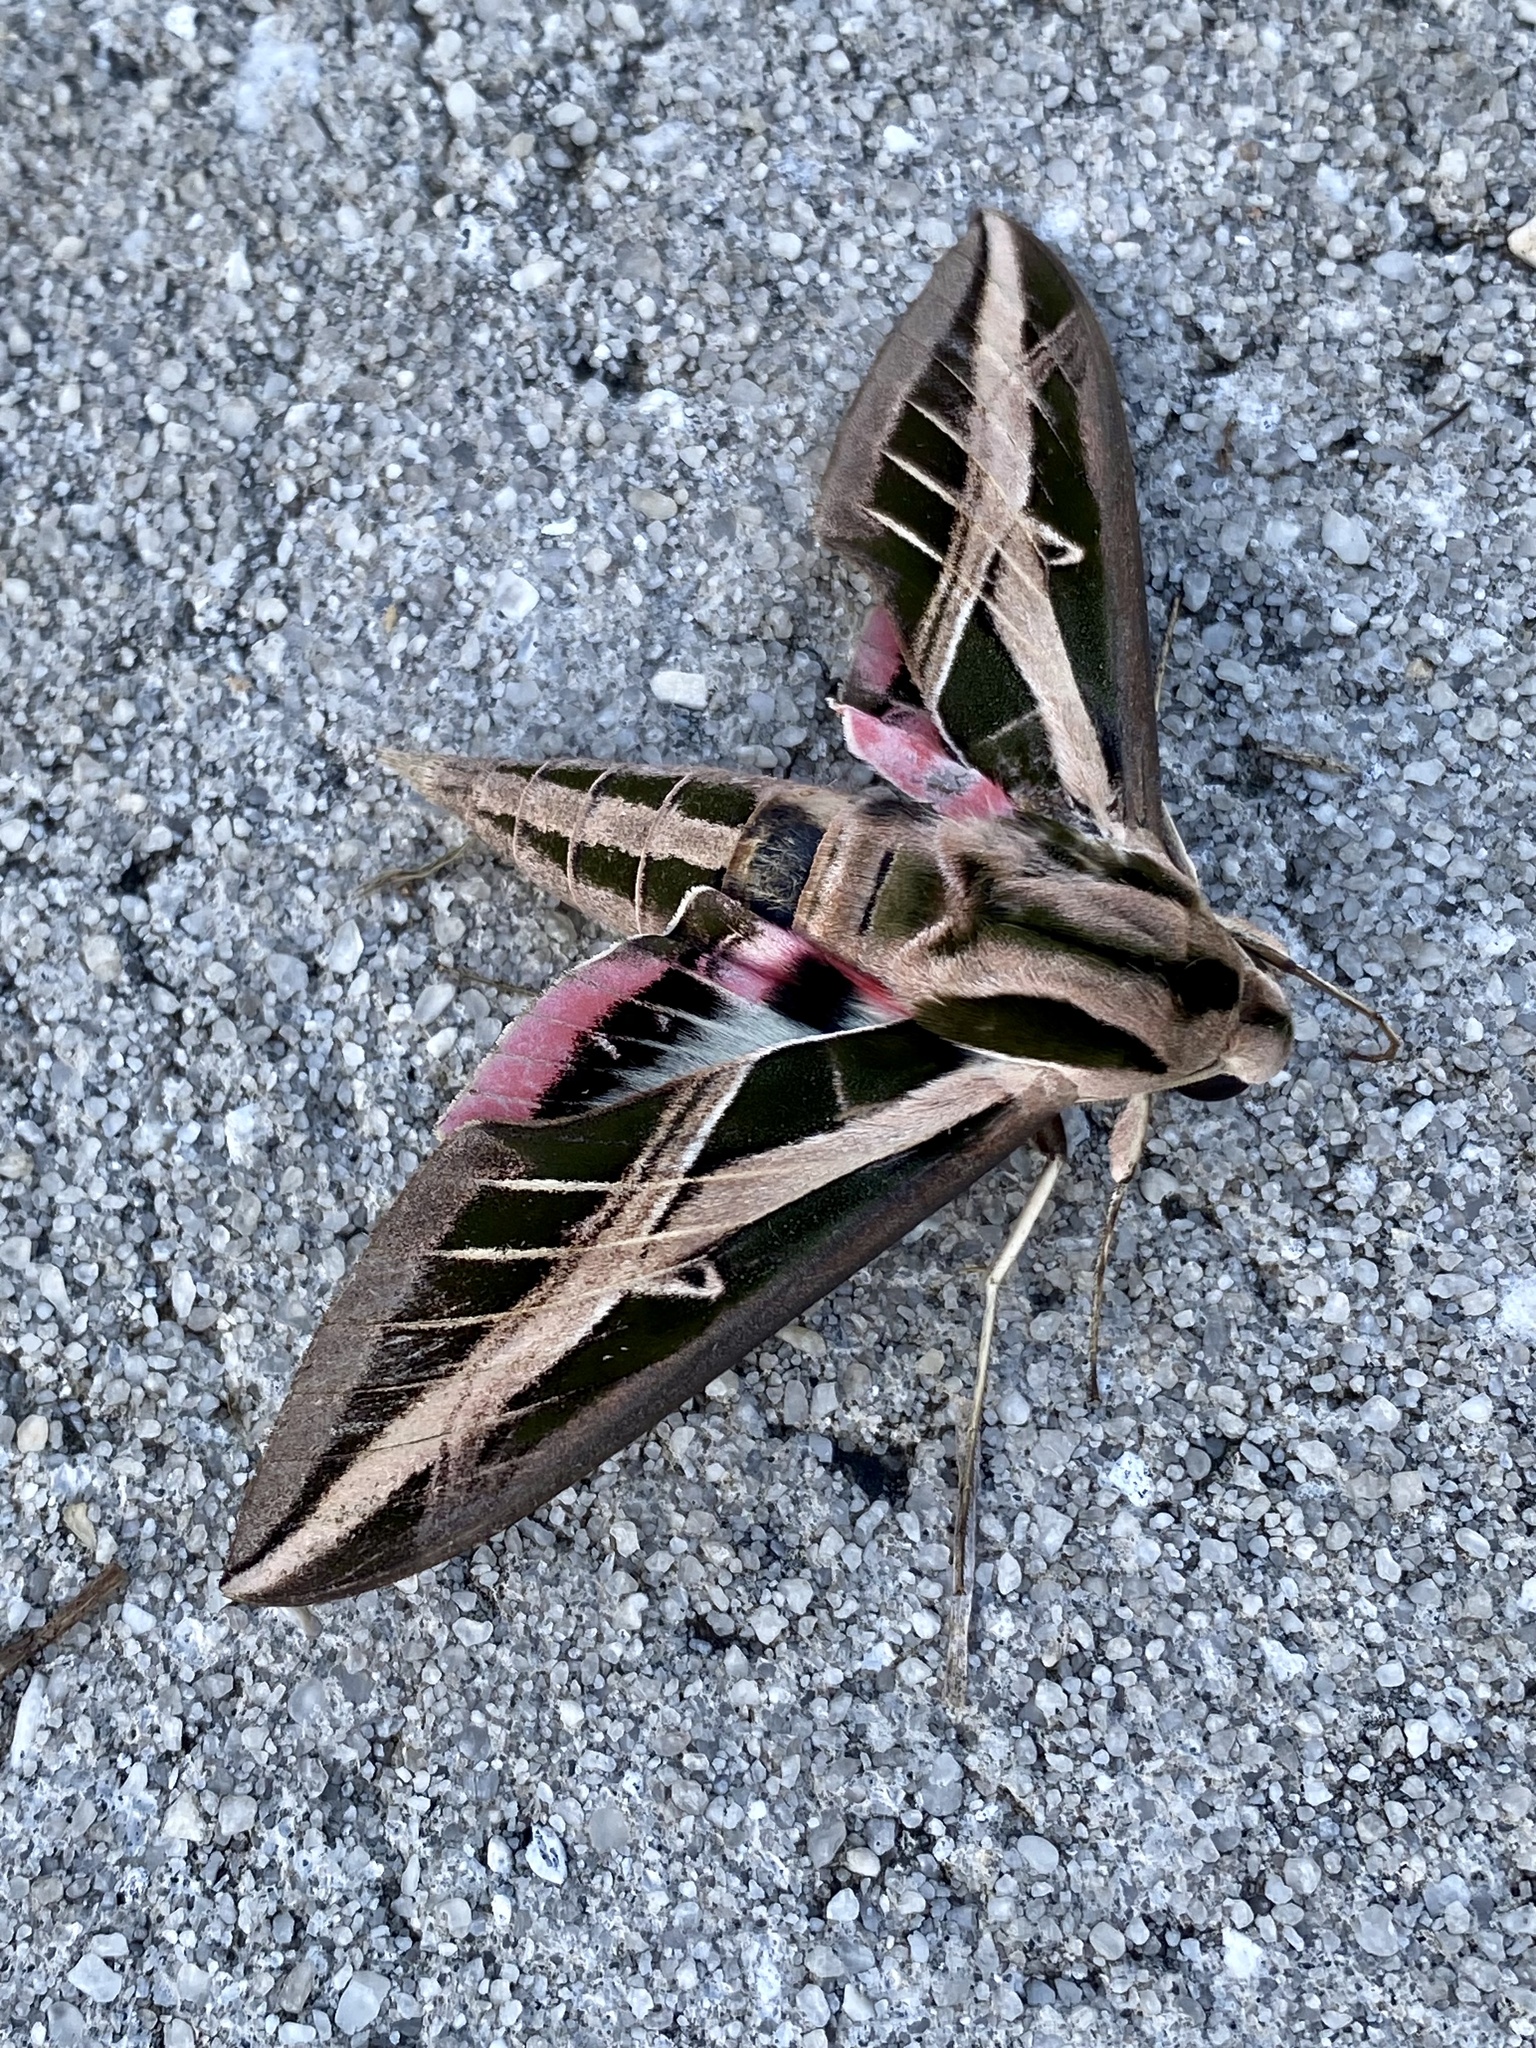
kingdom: Animalia
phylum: Arthropoda
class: Insecta
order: Lepidoptera
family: Sphingidae
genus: Eumorpha
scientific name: Eumorpha fasciatus
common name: Banded sphinx
